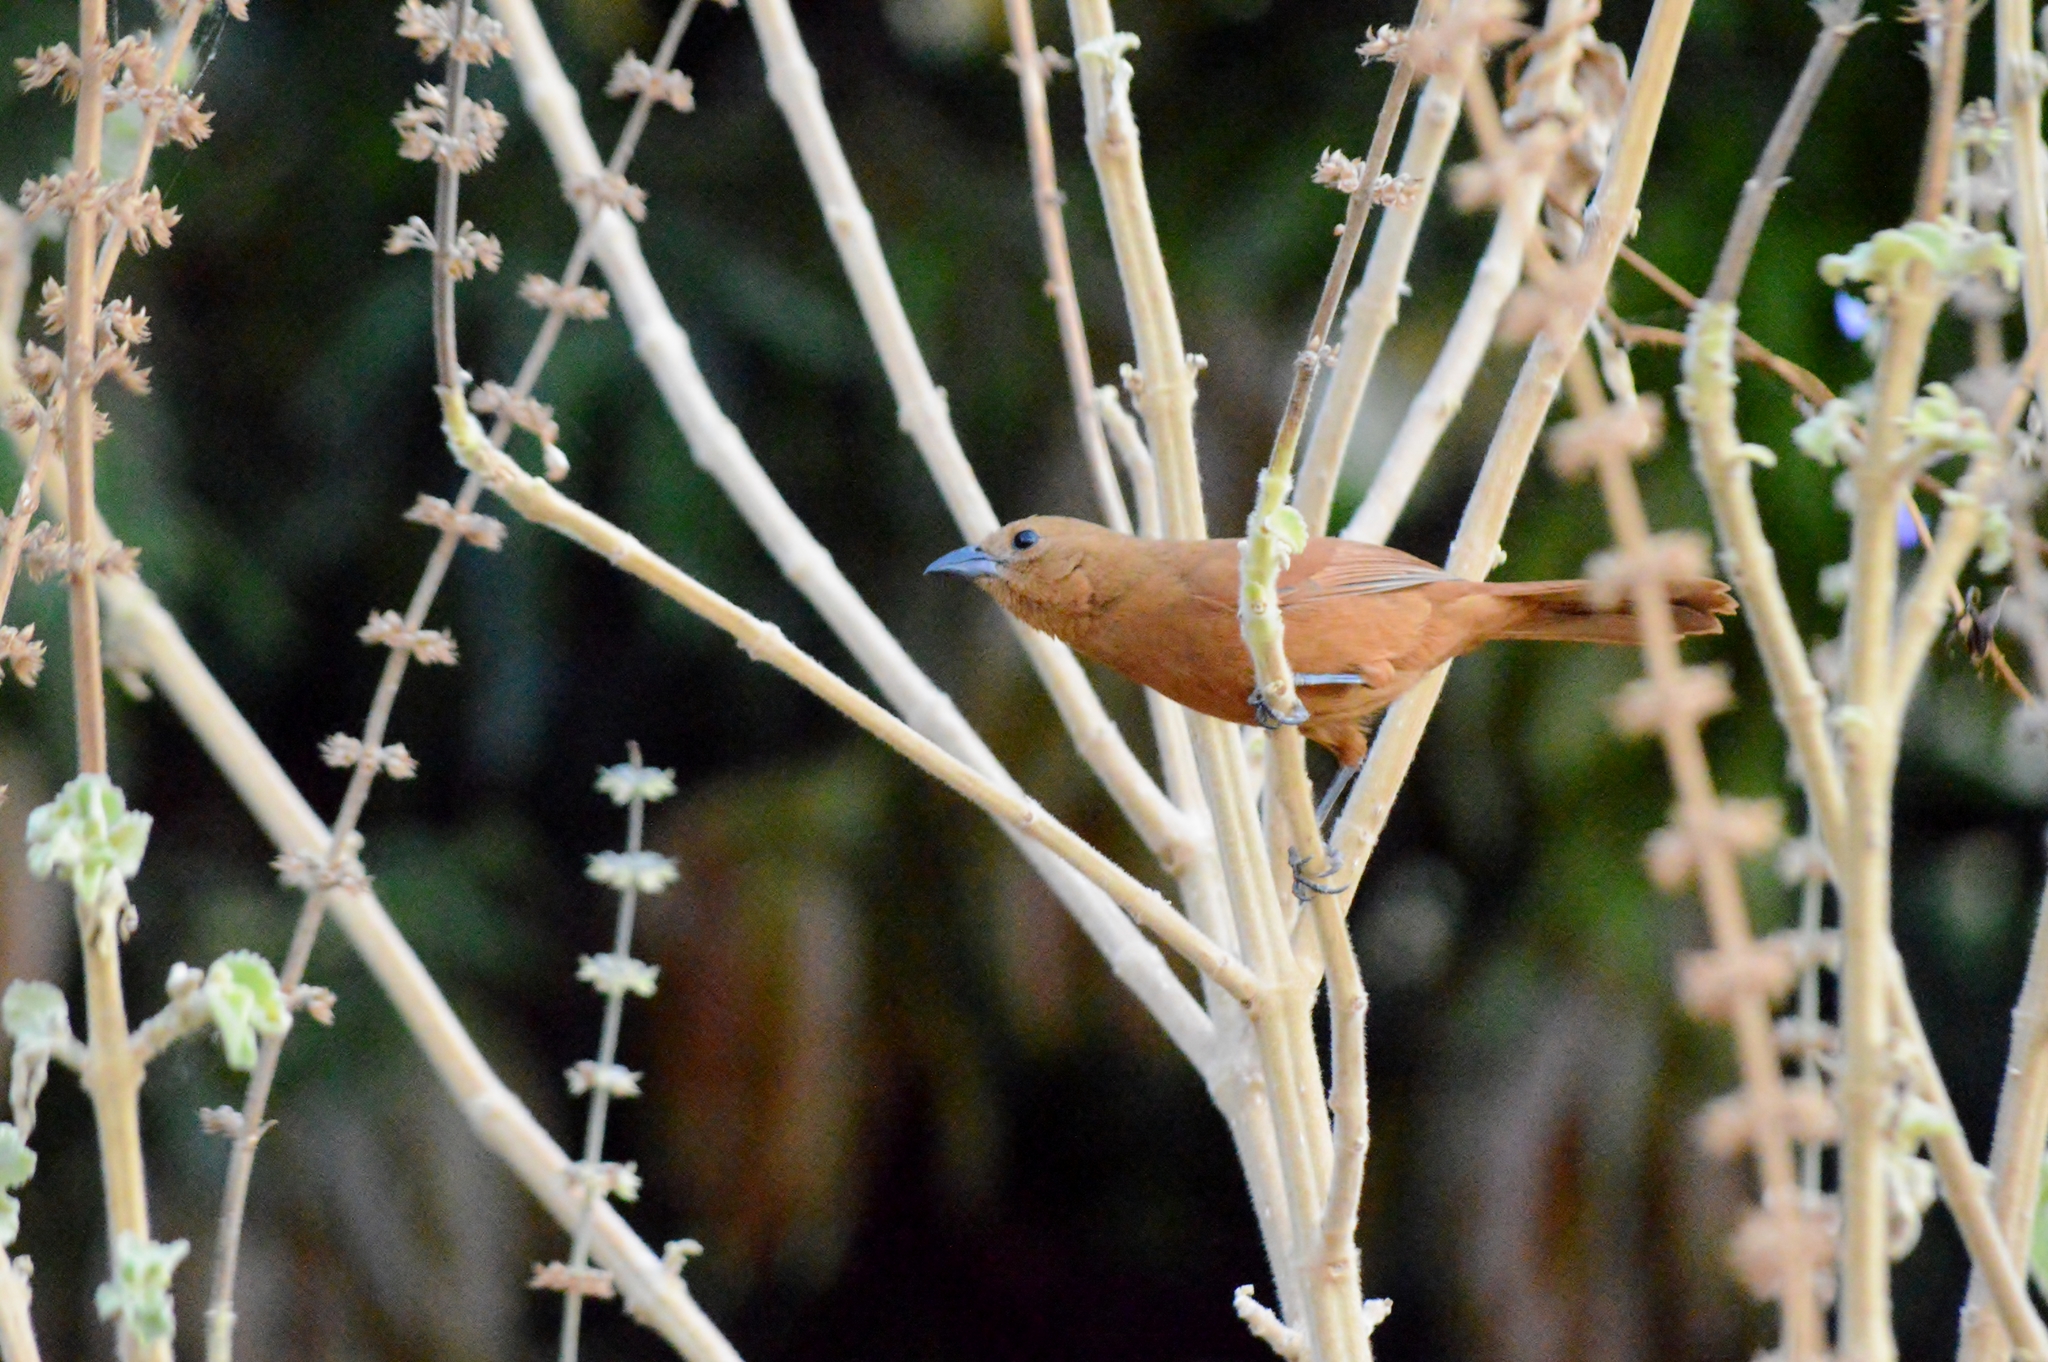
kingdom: Animalia
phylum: Chordata
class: Aves
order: Passeriformes
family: Thraupidae
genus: Tachyphonus
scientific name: Tachyphonus rufus
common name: White-lined tanager
